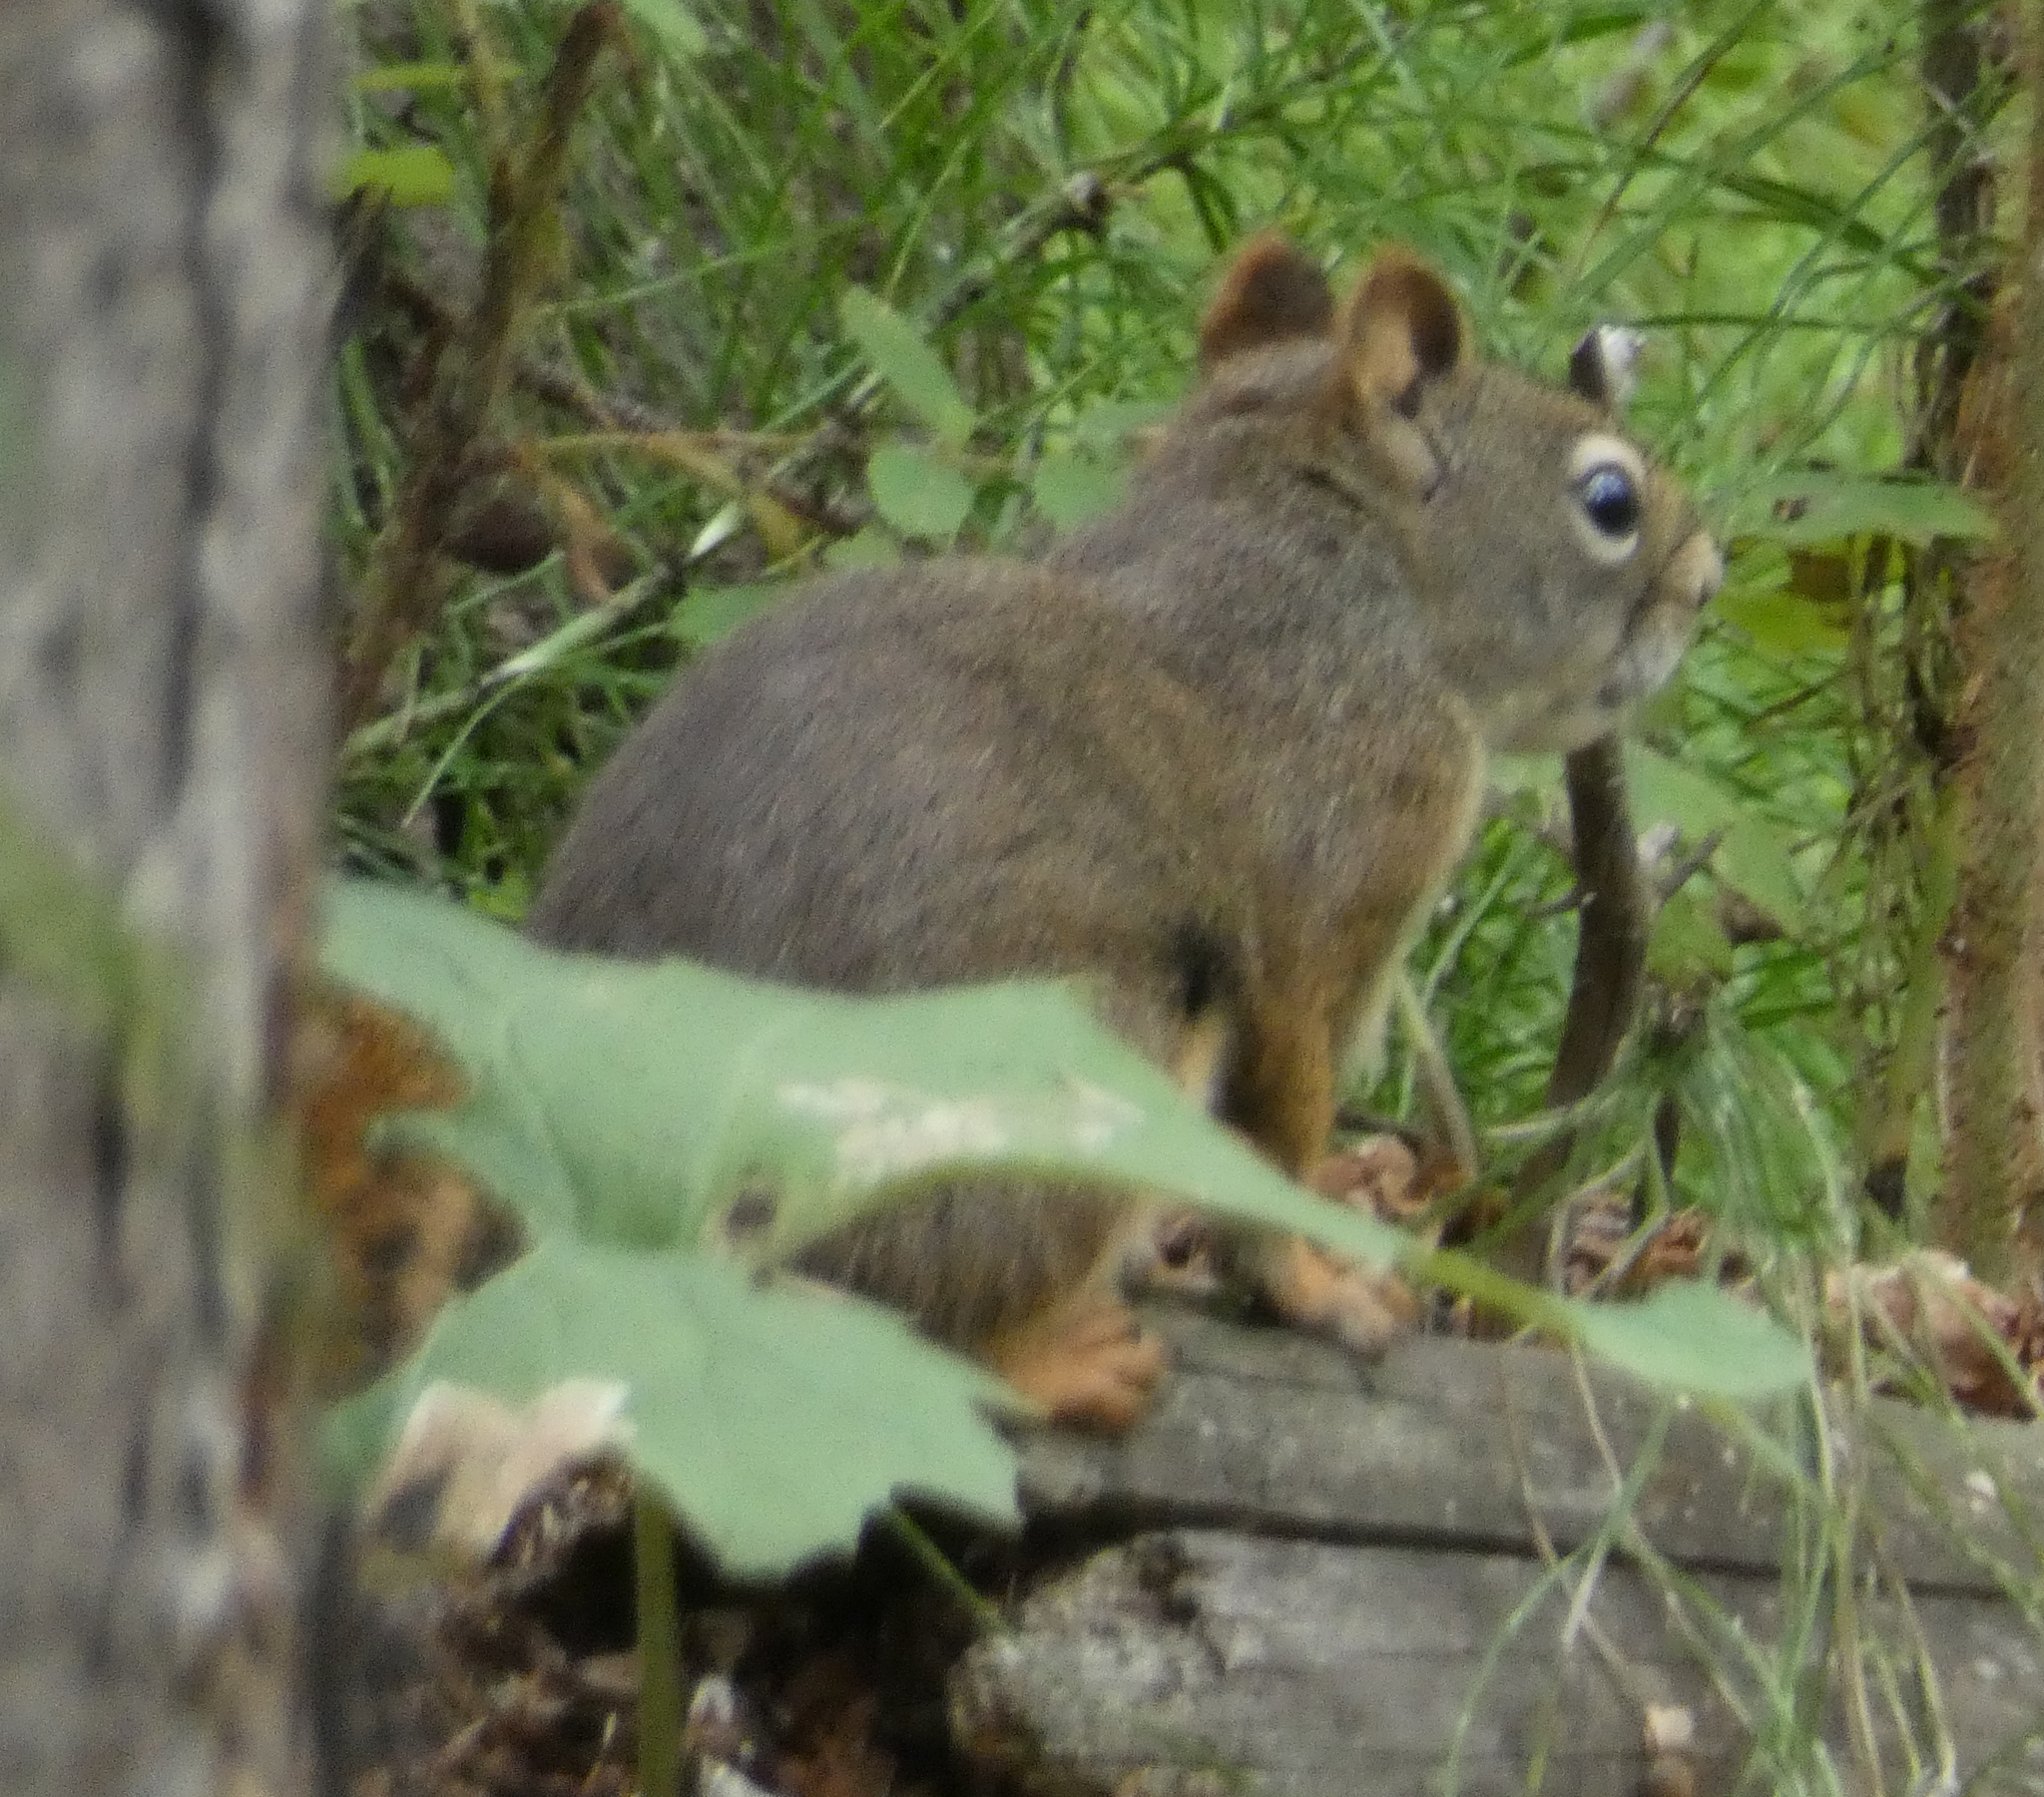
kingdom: Animalia
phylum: Chordata
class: Mammalia
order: Rodentia
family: Sciuridae
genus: Tamiasciurus
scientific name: Tamiasciurus hudsonicus
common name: Red squirrel
